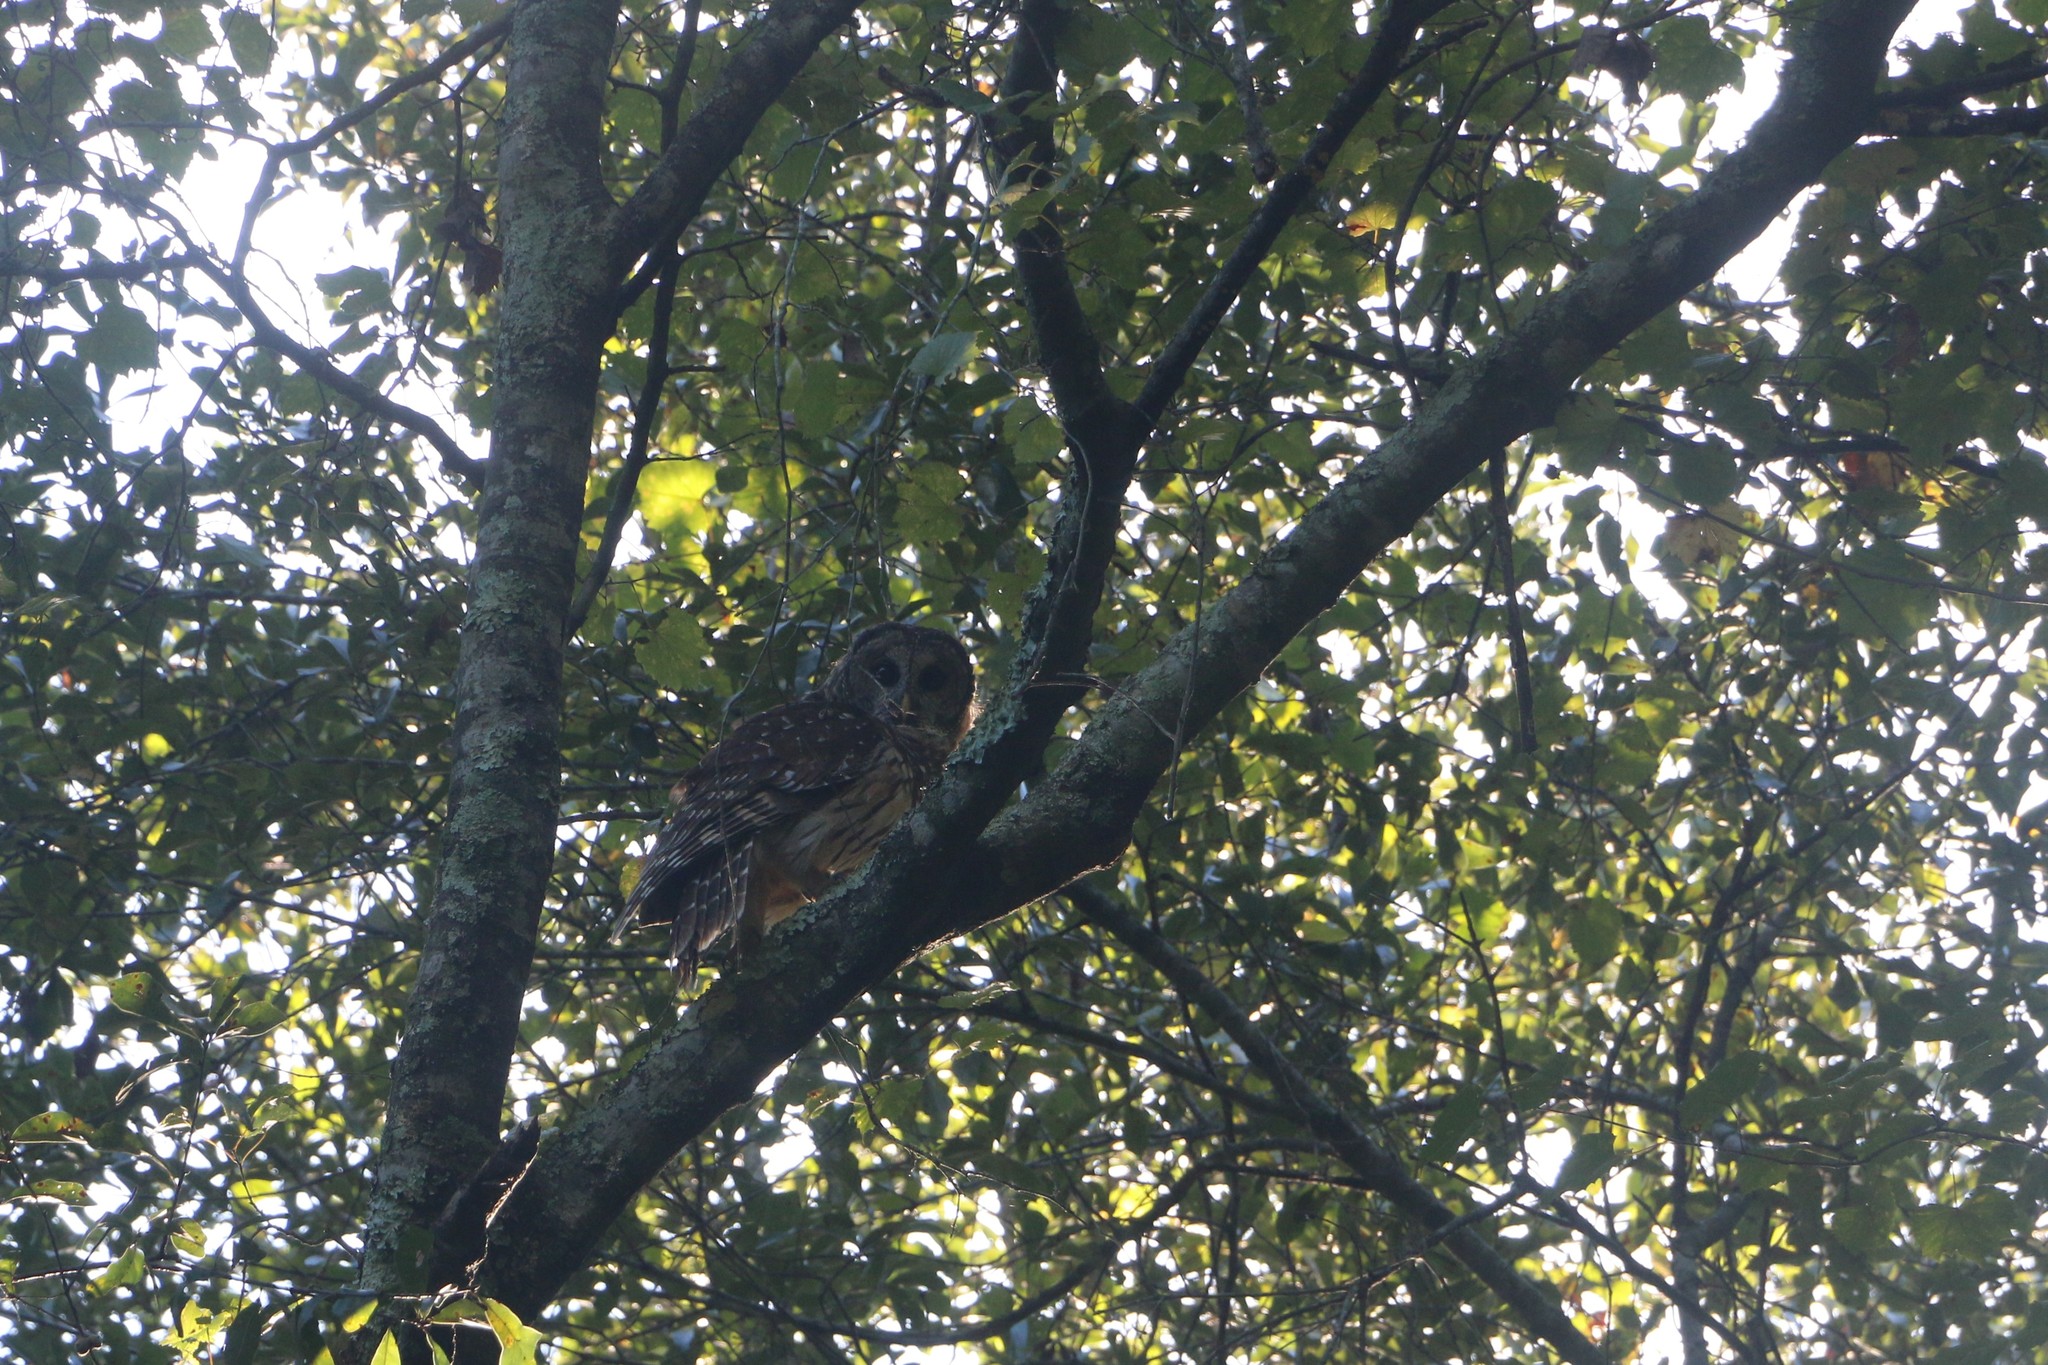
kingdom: Animalia
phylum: Chordata
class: Aves
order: Strigiformes
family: Strigidae
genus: Strix
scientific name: Strix varia
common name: Barred owl
